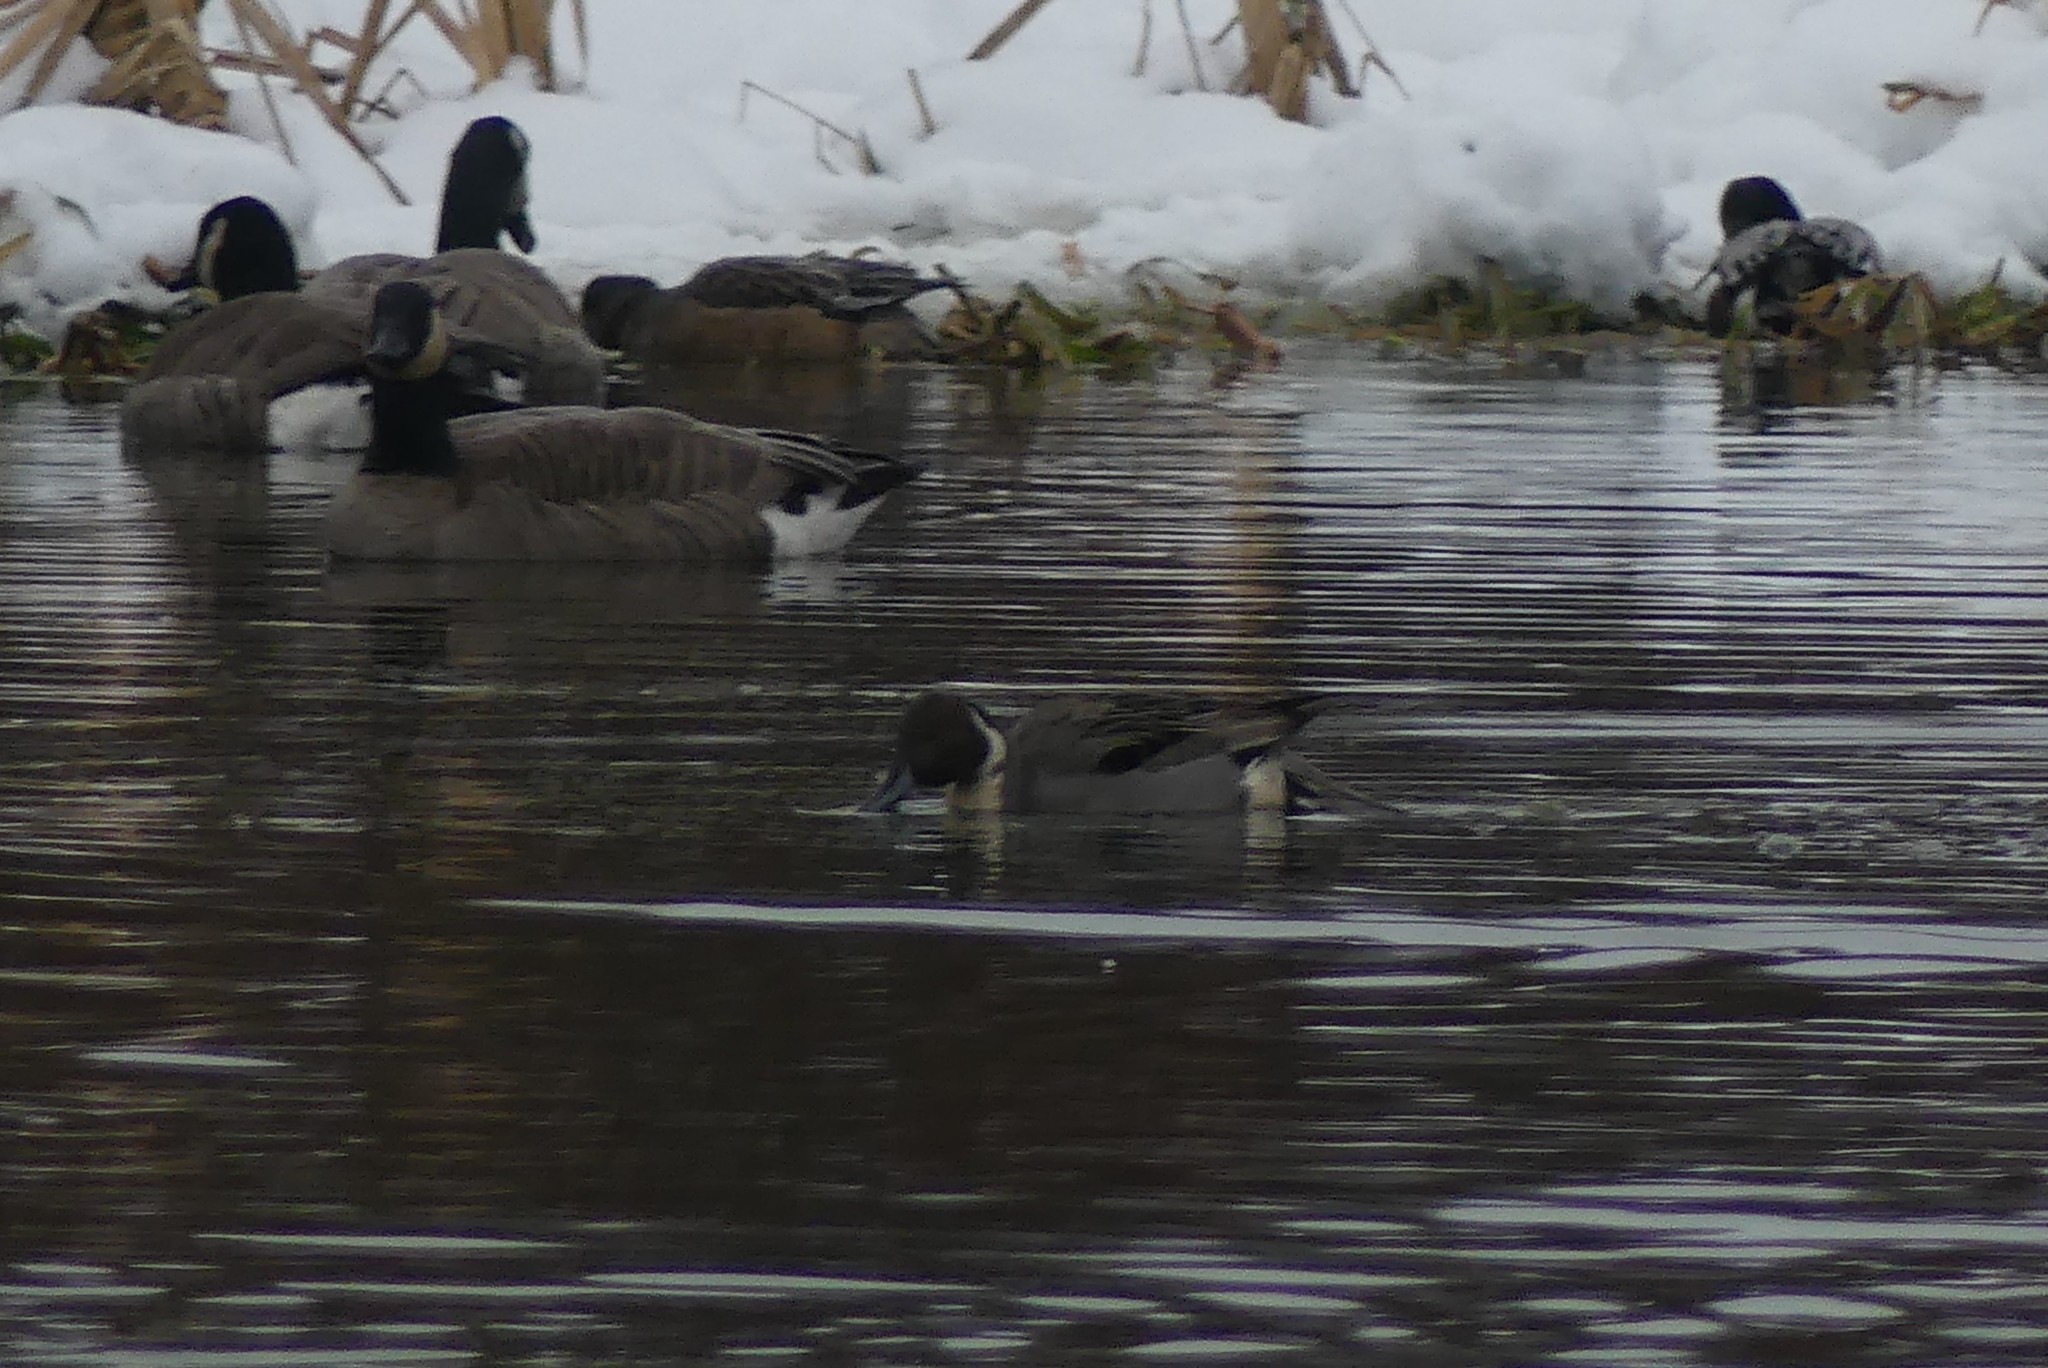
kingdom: Animalia
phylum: Chordata
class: Aves
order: Anseriformes
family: Anatidae
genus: Anas
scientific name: Anas acuta
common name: Northern pintail
